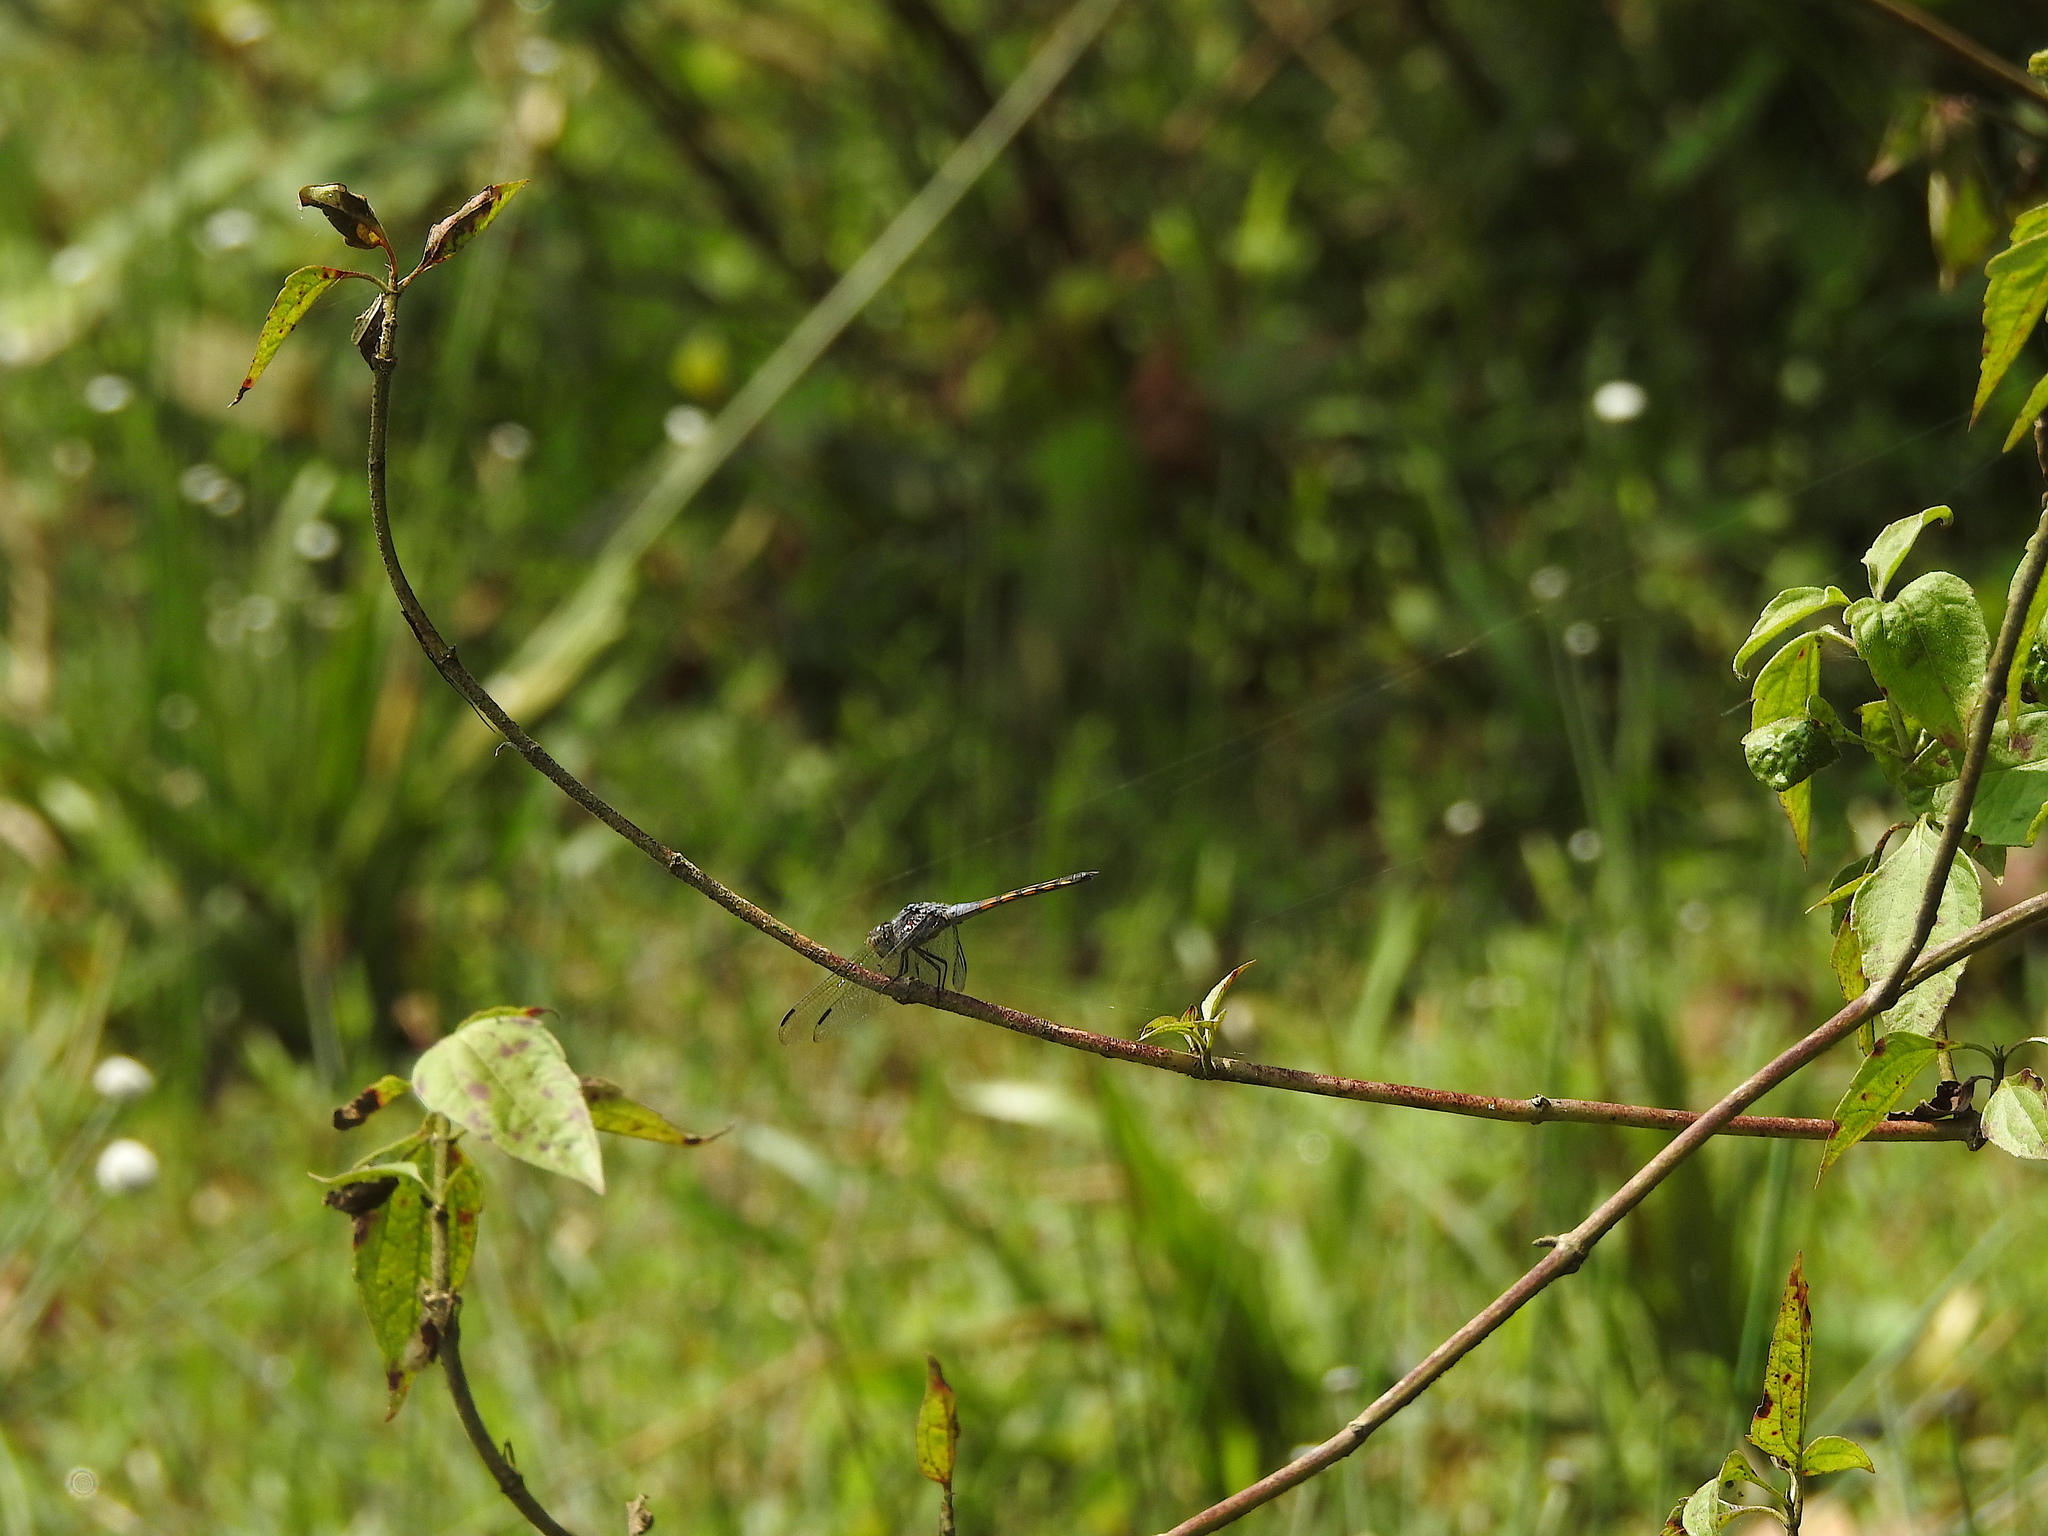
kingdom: Animalia
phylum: Arthropoda
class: Insecta
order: Odonata
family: Libellulidae
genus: Potamarcha
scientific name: Potamarcha congener
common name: Blue chaser
